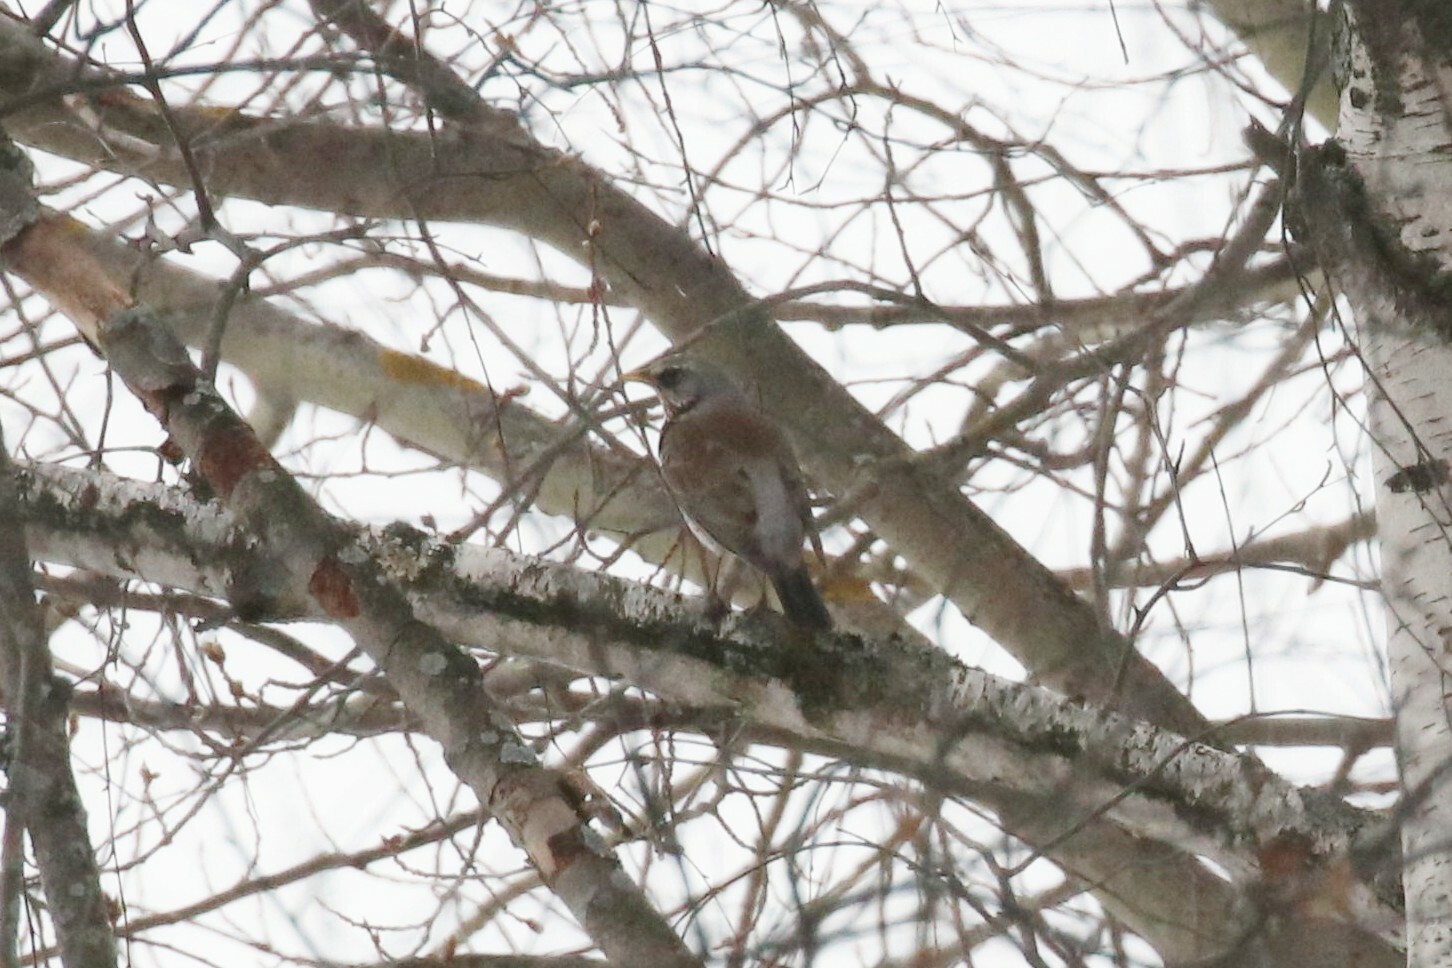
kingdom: Animalia
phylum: Chordata
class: Aves
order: Passeriformes
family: Turdidae
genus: Turdus
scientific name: Turdus pilaris
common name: Fieldfare
